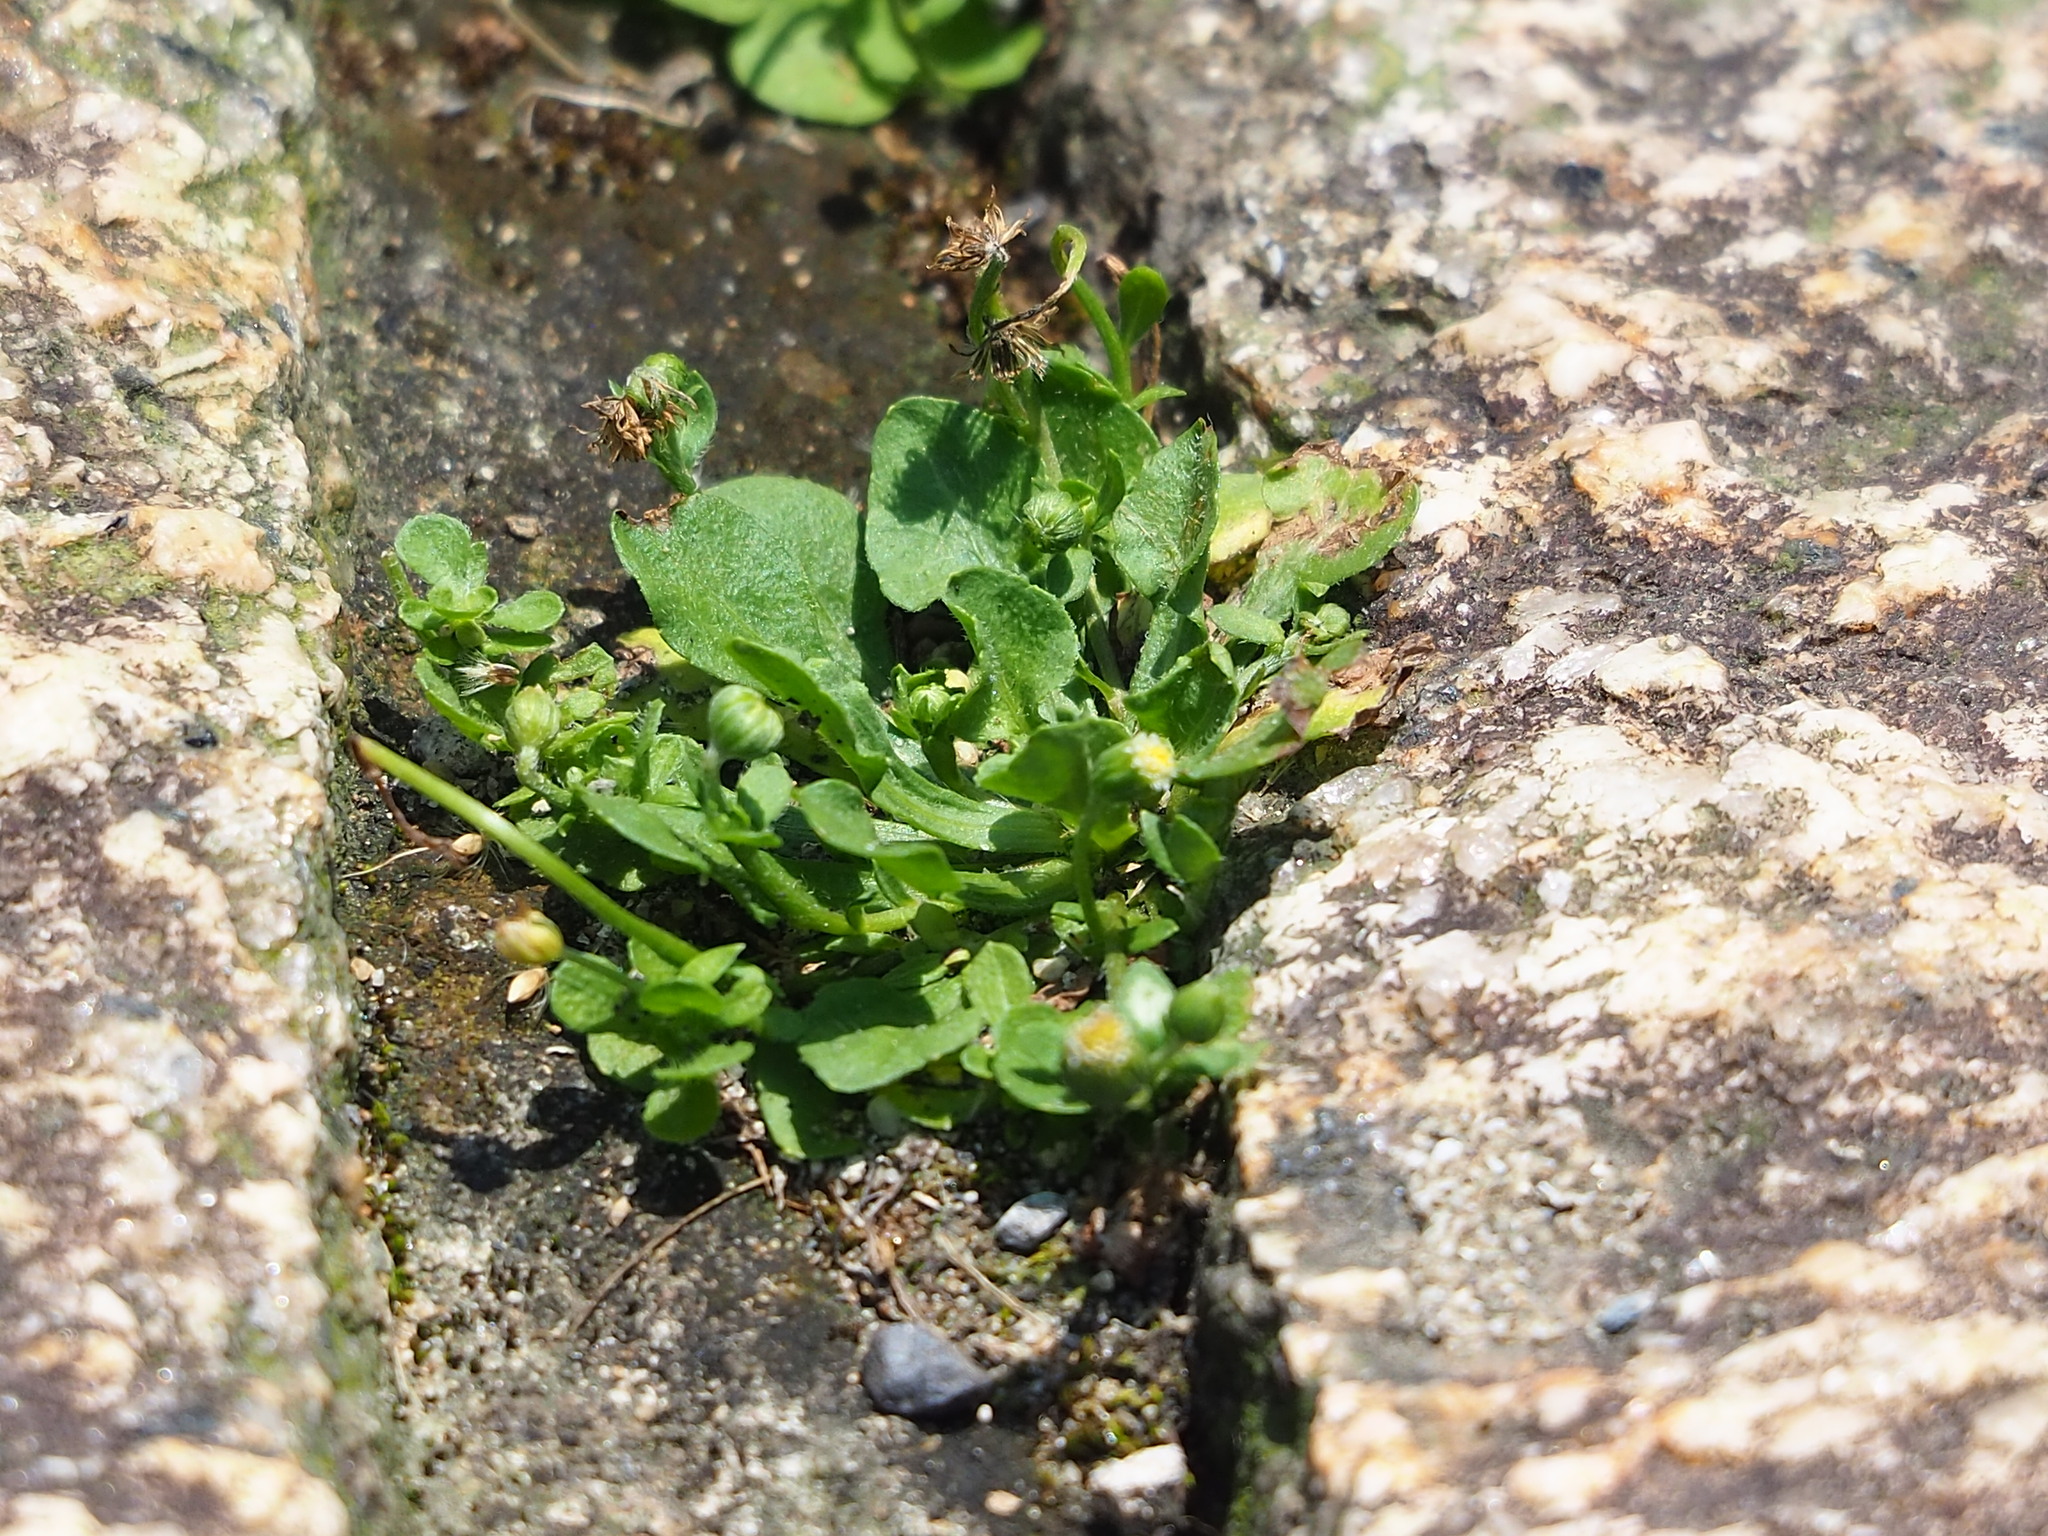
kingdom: Plantae
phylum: Tracheophyta
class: Magnoliopsida
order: Asterales
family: Asteraceae
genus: Erigeron
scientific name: Erigeron bellioides
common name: Bellorita
